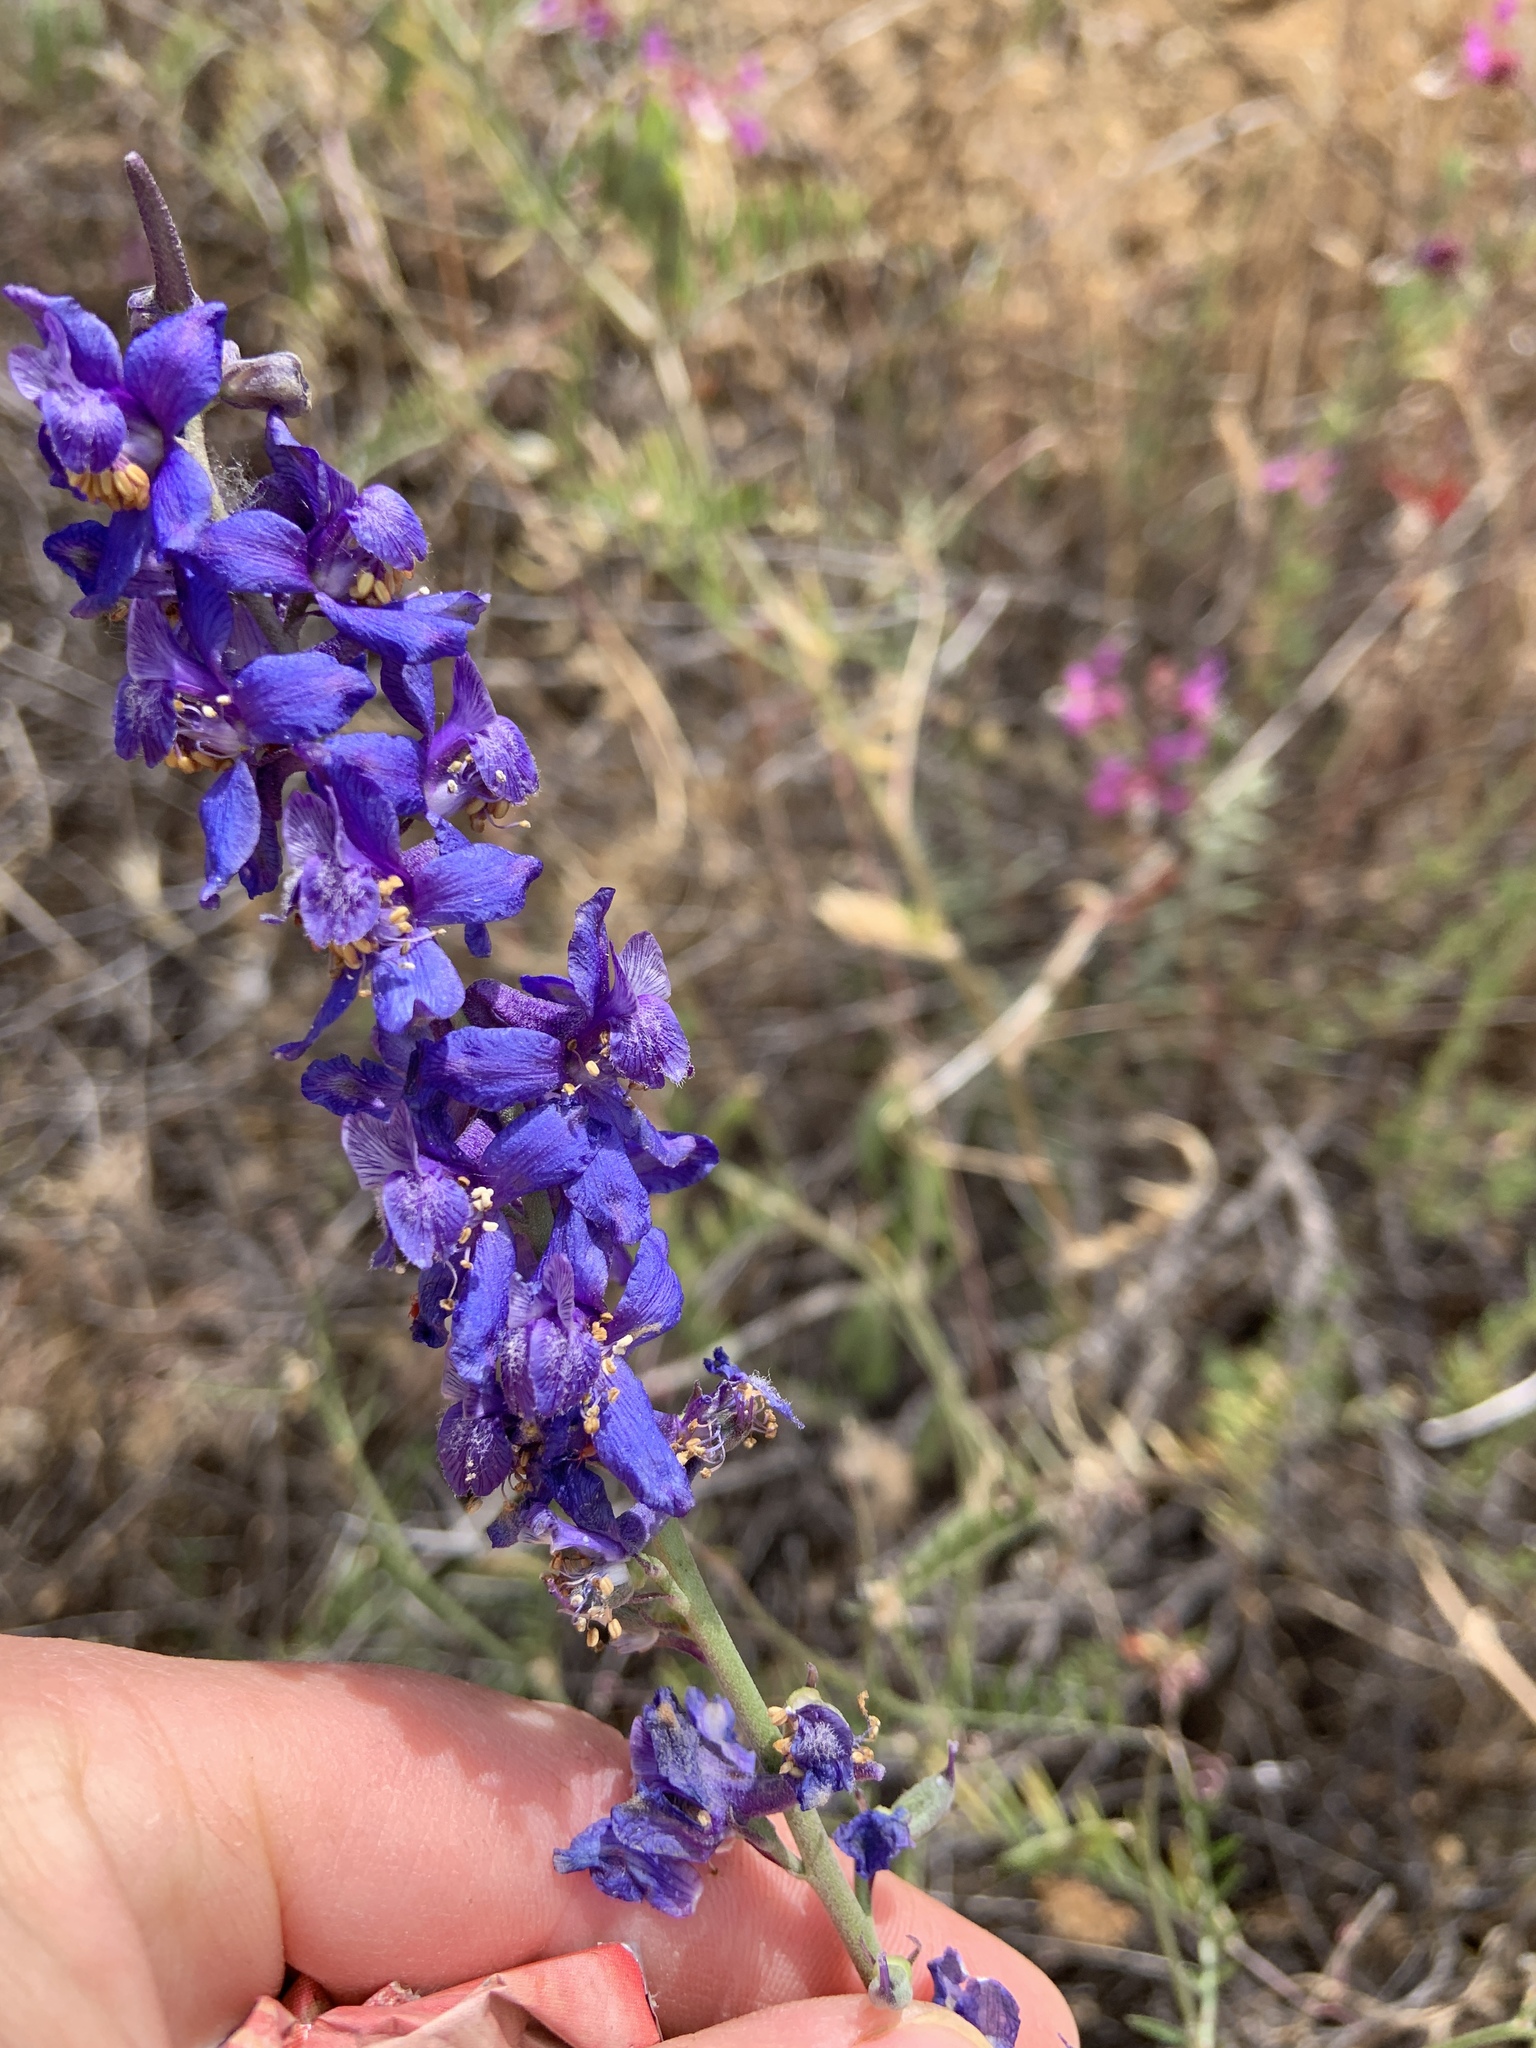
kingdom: Plantae
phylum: Tracheophyta
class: Magnoliopsida
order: Ranunculales
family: Ranunculaceae
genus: Delphinium
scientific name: Delphinium parryi
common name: Parry's larkspur
